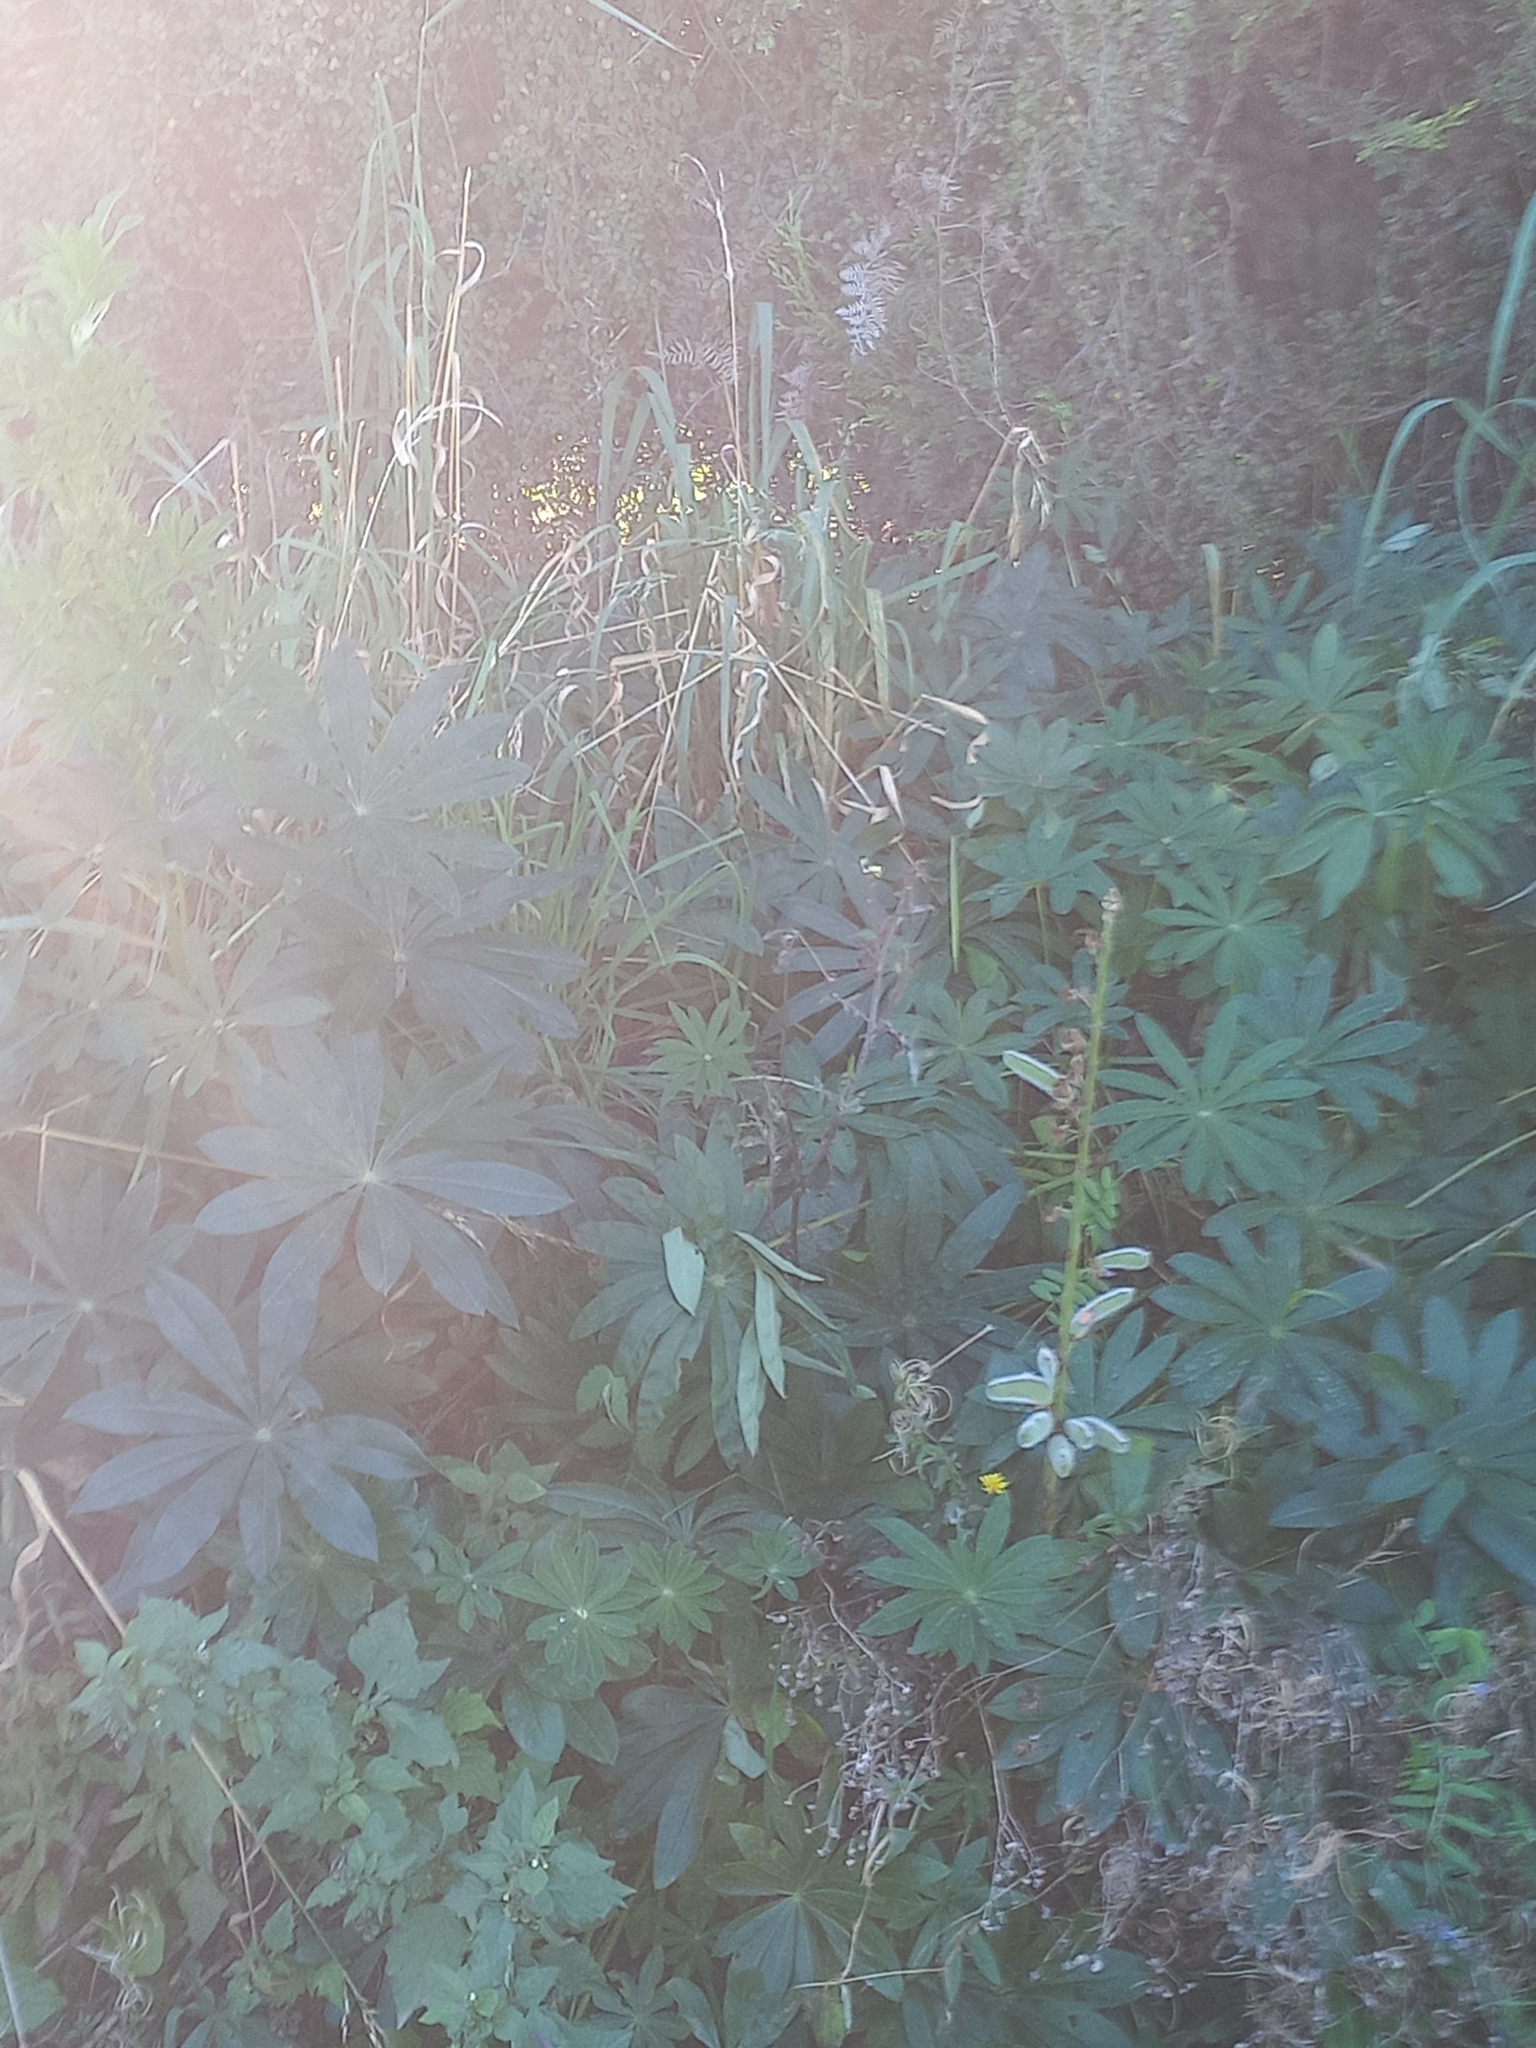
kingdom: Plantae
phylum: Tracheophyta
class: Magnoliopsida
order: Fabales
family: Fabaceae
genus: Lupinus
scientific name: Lupinus polyphyllus
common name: Garden lupin
